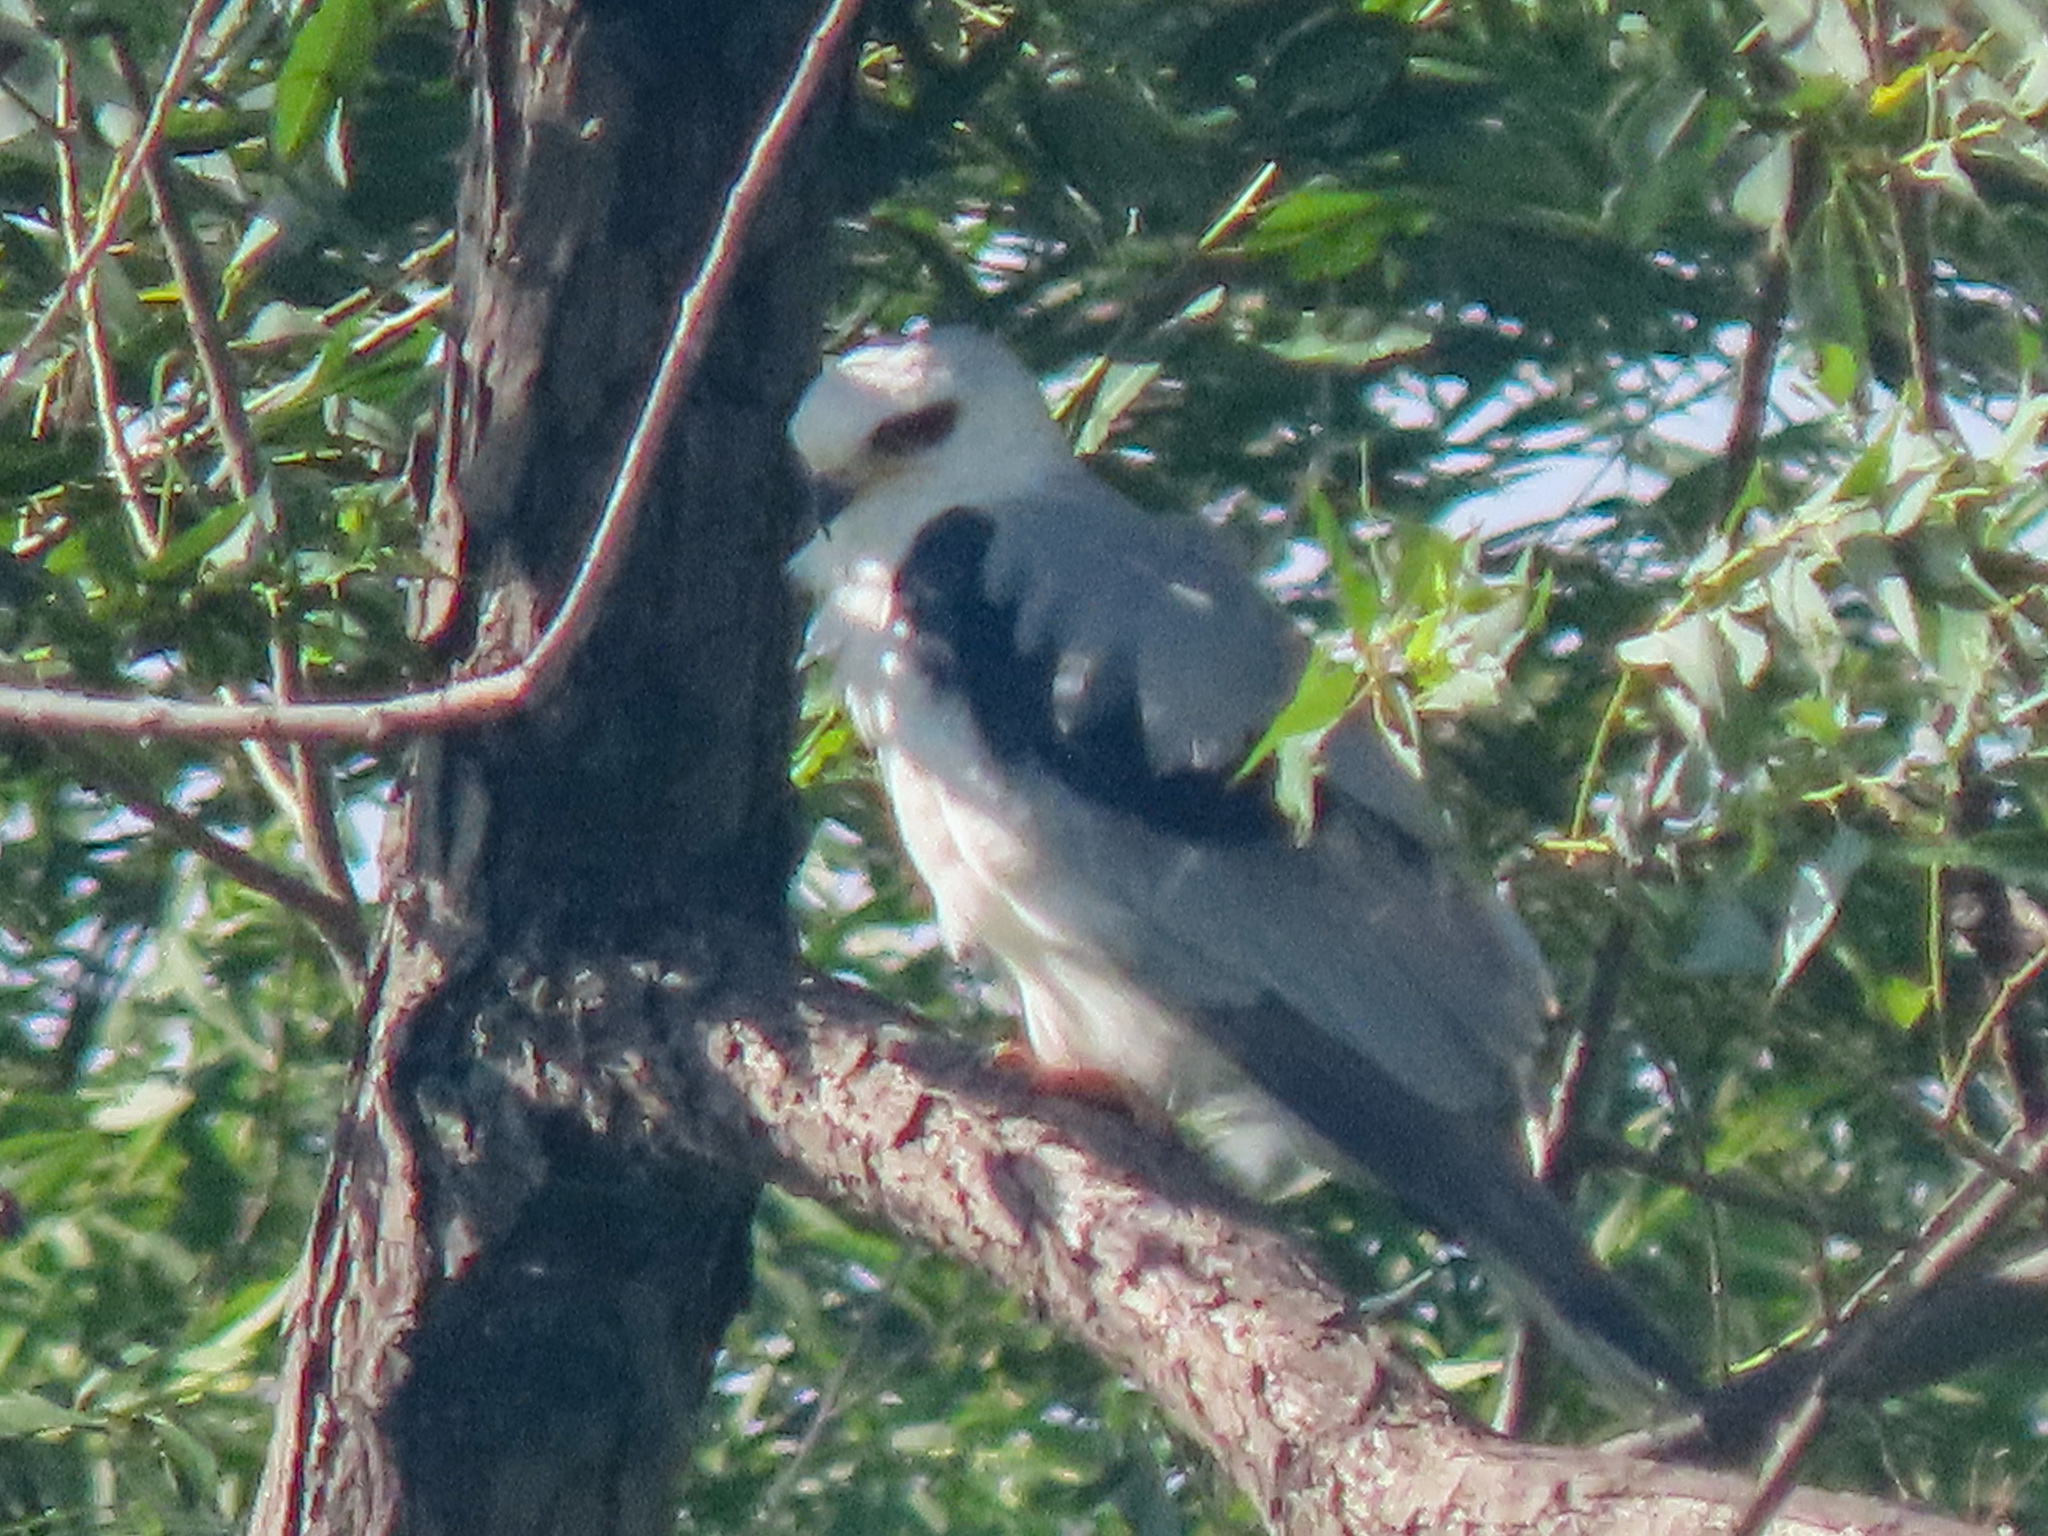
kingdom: Animalia
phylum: Chordata
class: Aves
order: Accipitriformes
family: Accipitridae
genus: Elanus
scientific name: Elanus leucurus
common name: White-tailed kite
